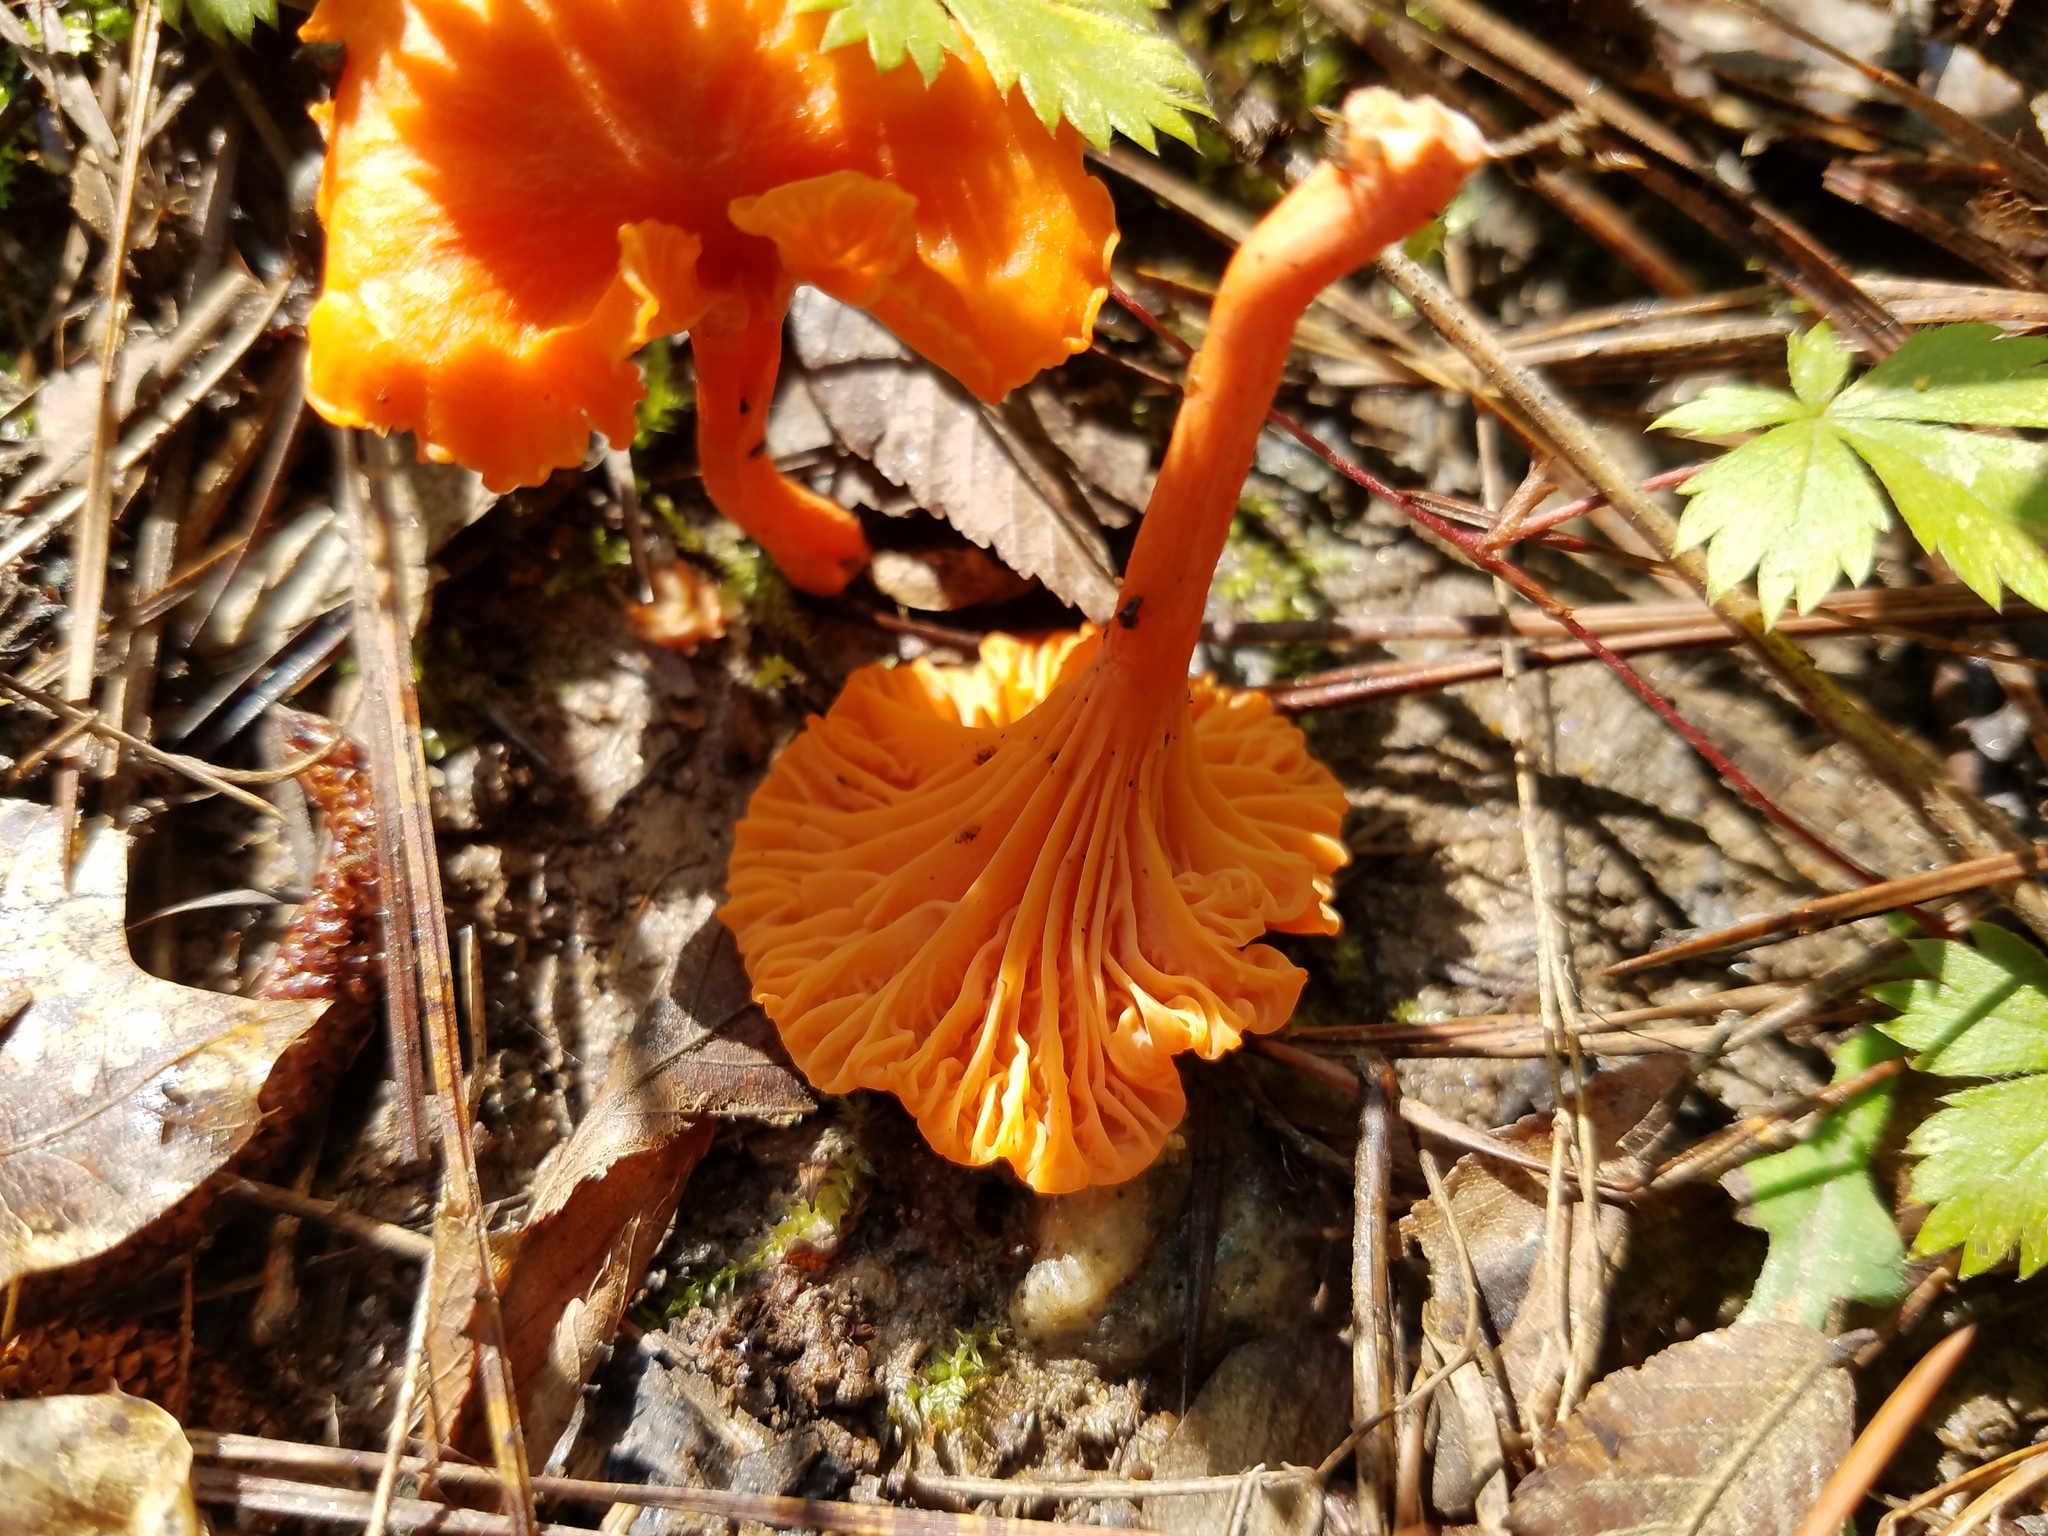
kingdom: Fungi
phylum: Basidiomycota
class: Agaricomycetes
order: Cantharellales
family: Hydnaceae
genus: Cantharellus
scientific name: Cantharellus cinnabarinus
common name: Cinnabar chanterelle
